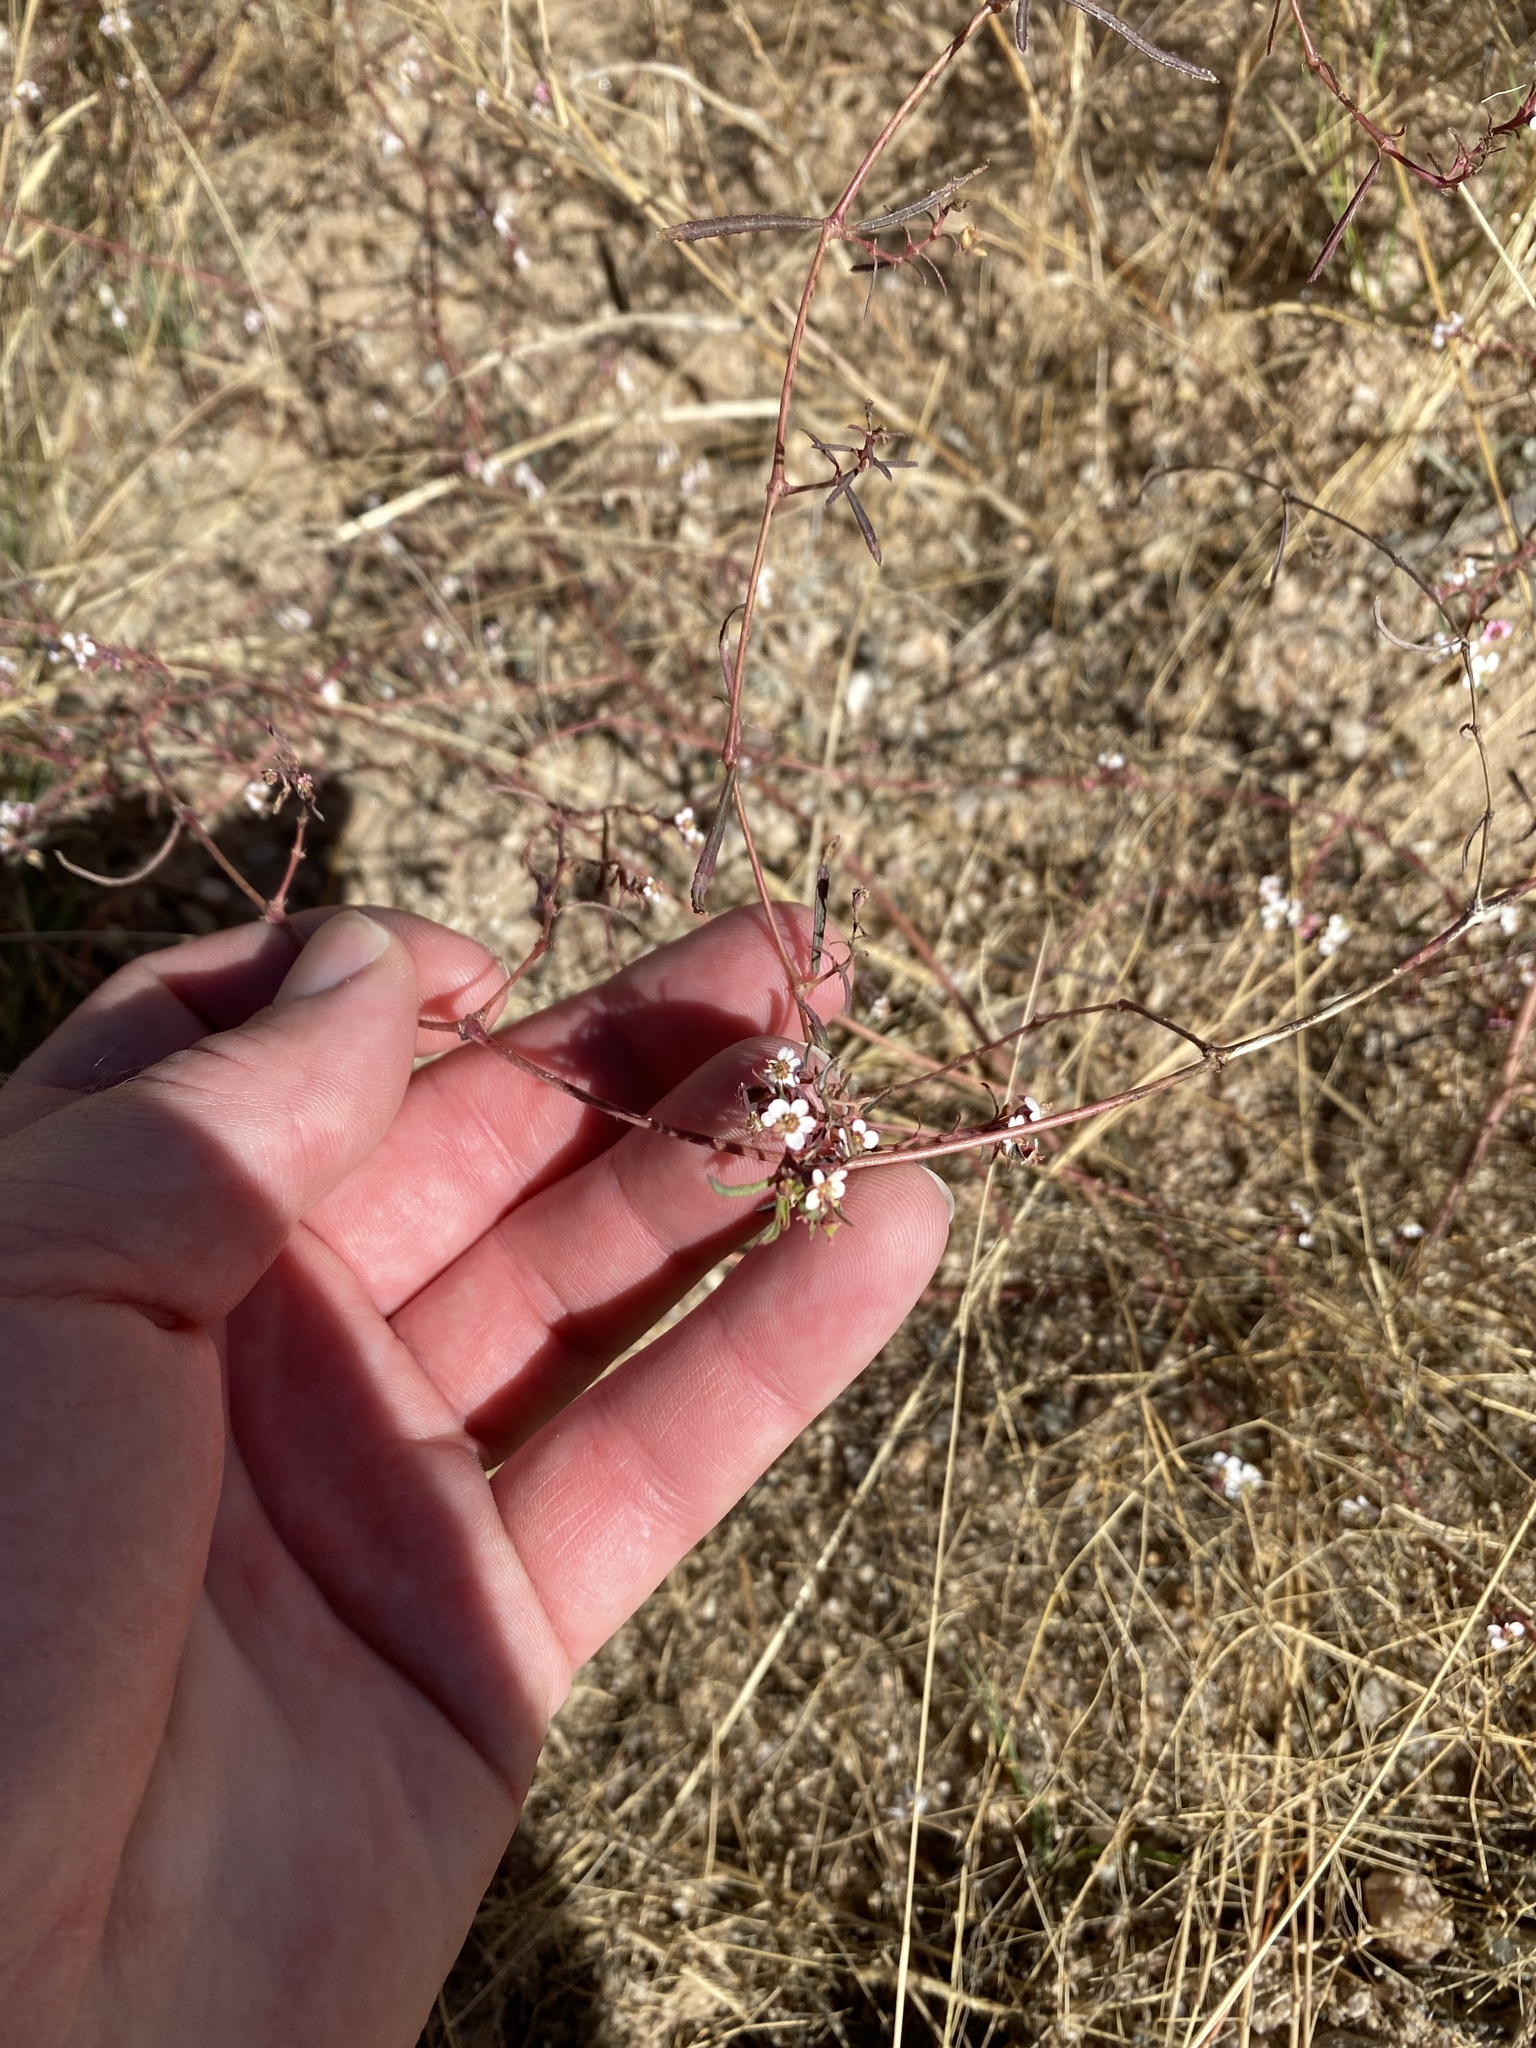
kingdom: Plantae
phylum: Tracheophyta
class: Magnoliopsida
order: Malpighiales
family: Euphorbiaceae
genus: Euphorbia
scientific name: Euphorbia florida
